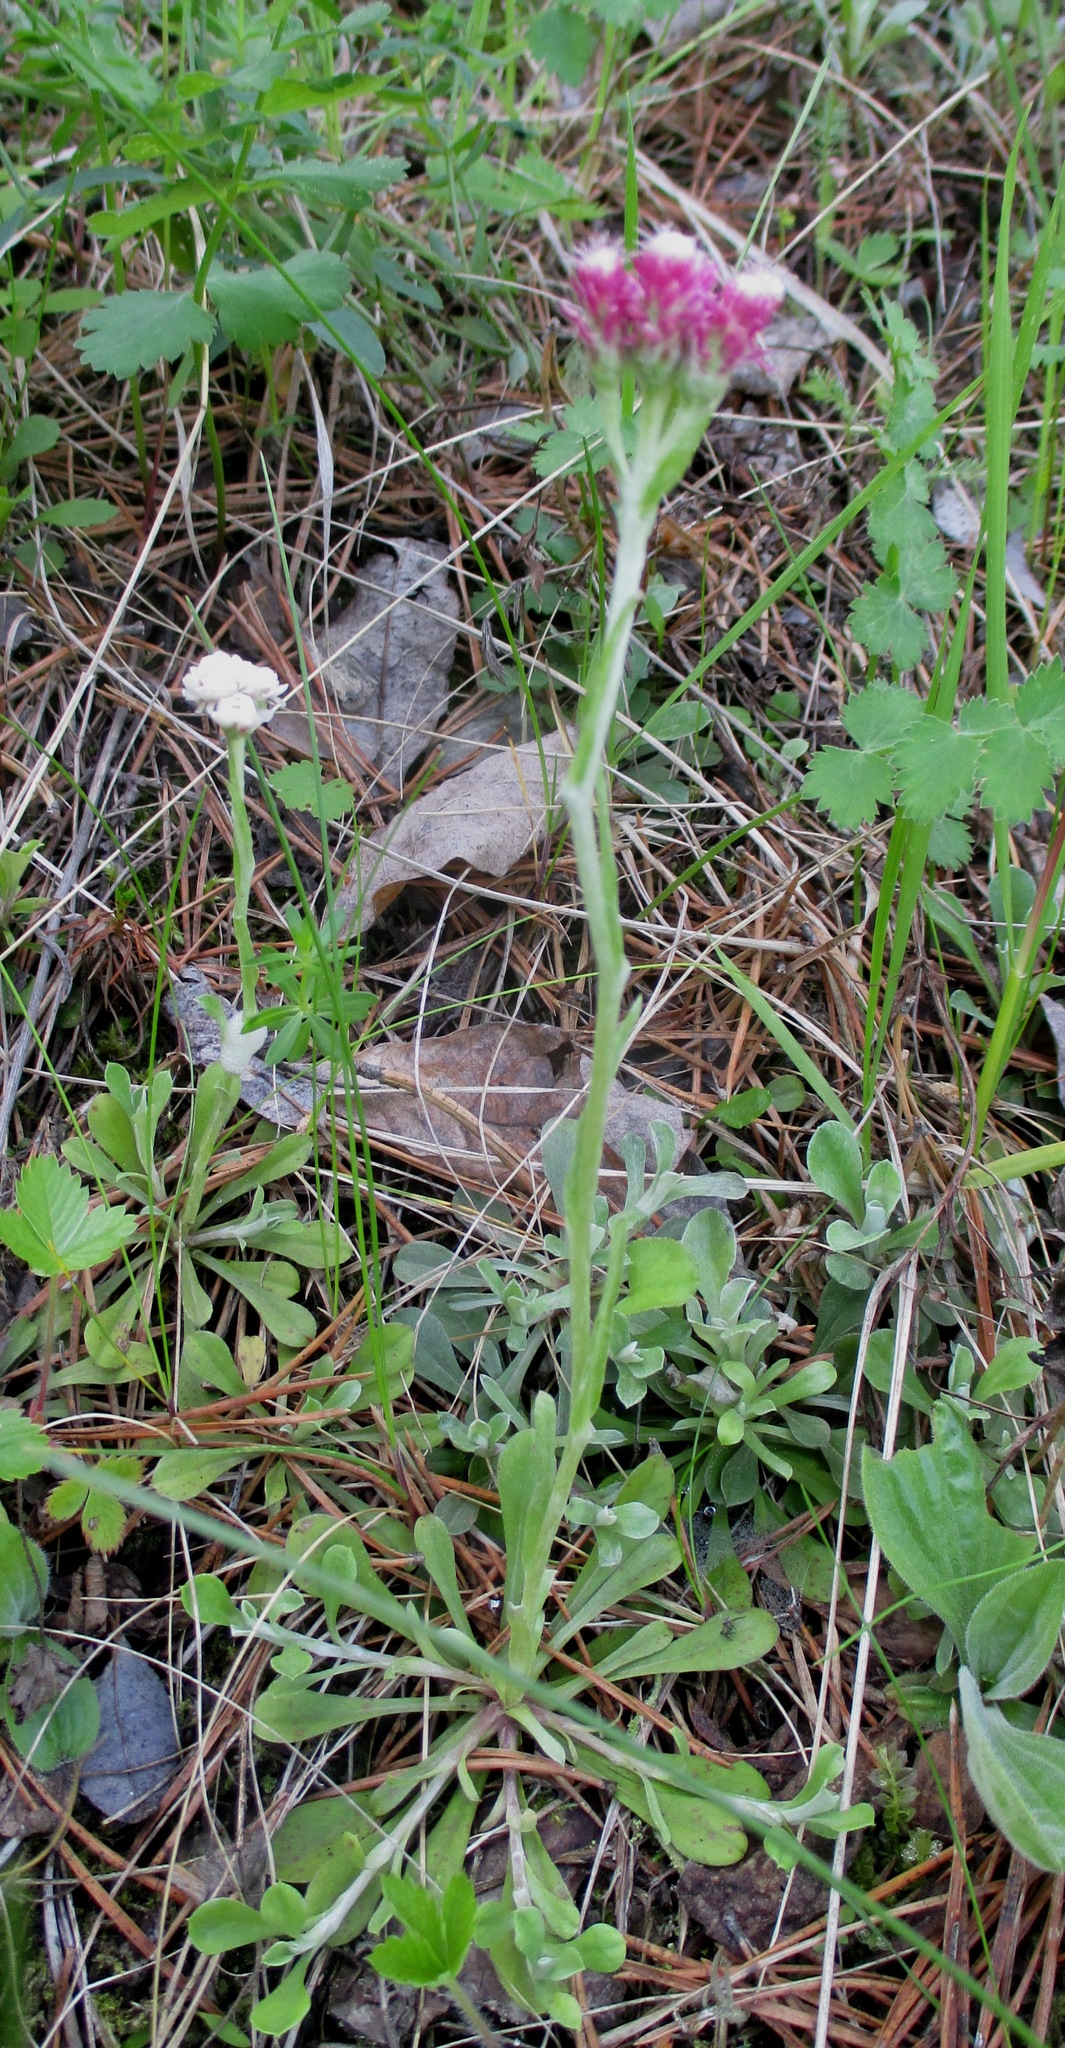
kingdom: Plantae
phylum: Tracheophyta
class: Magnoliopsida
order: Asterales
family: Asteraceae
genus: Antennaria
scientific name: Antennaria dioica
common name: Mountain everlasting
